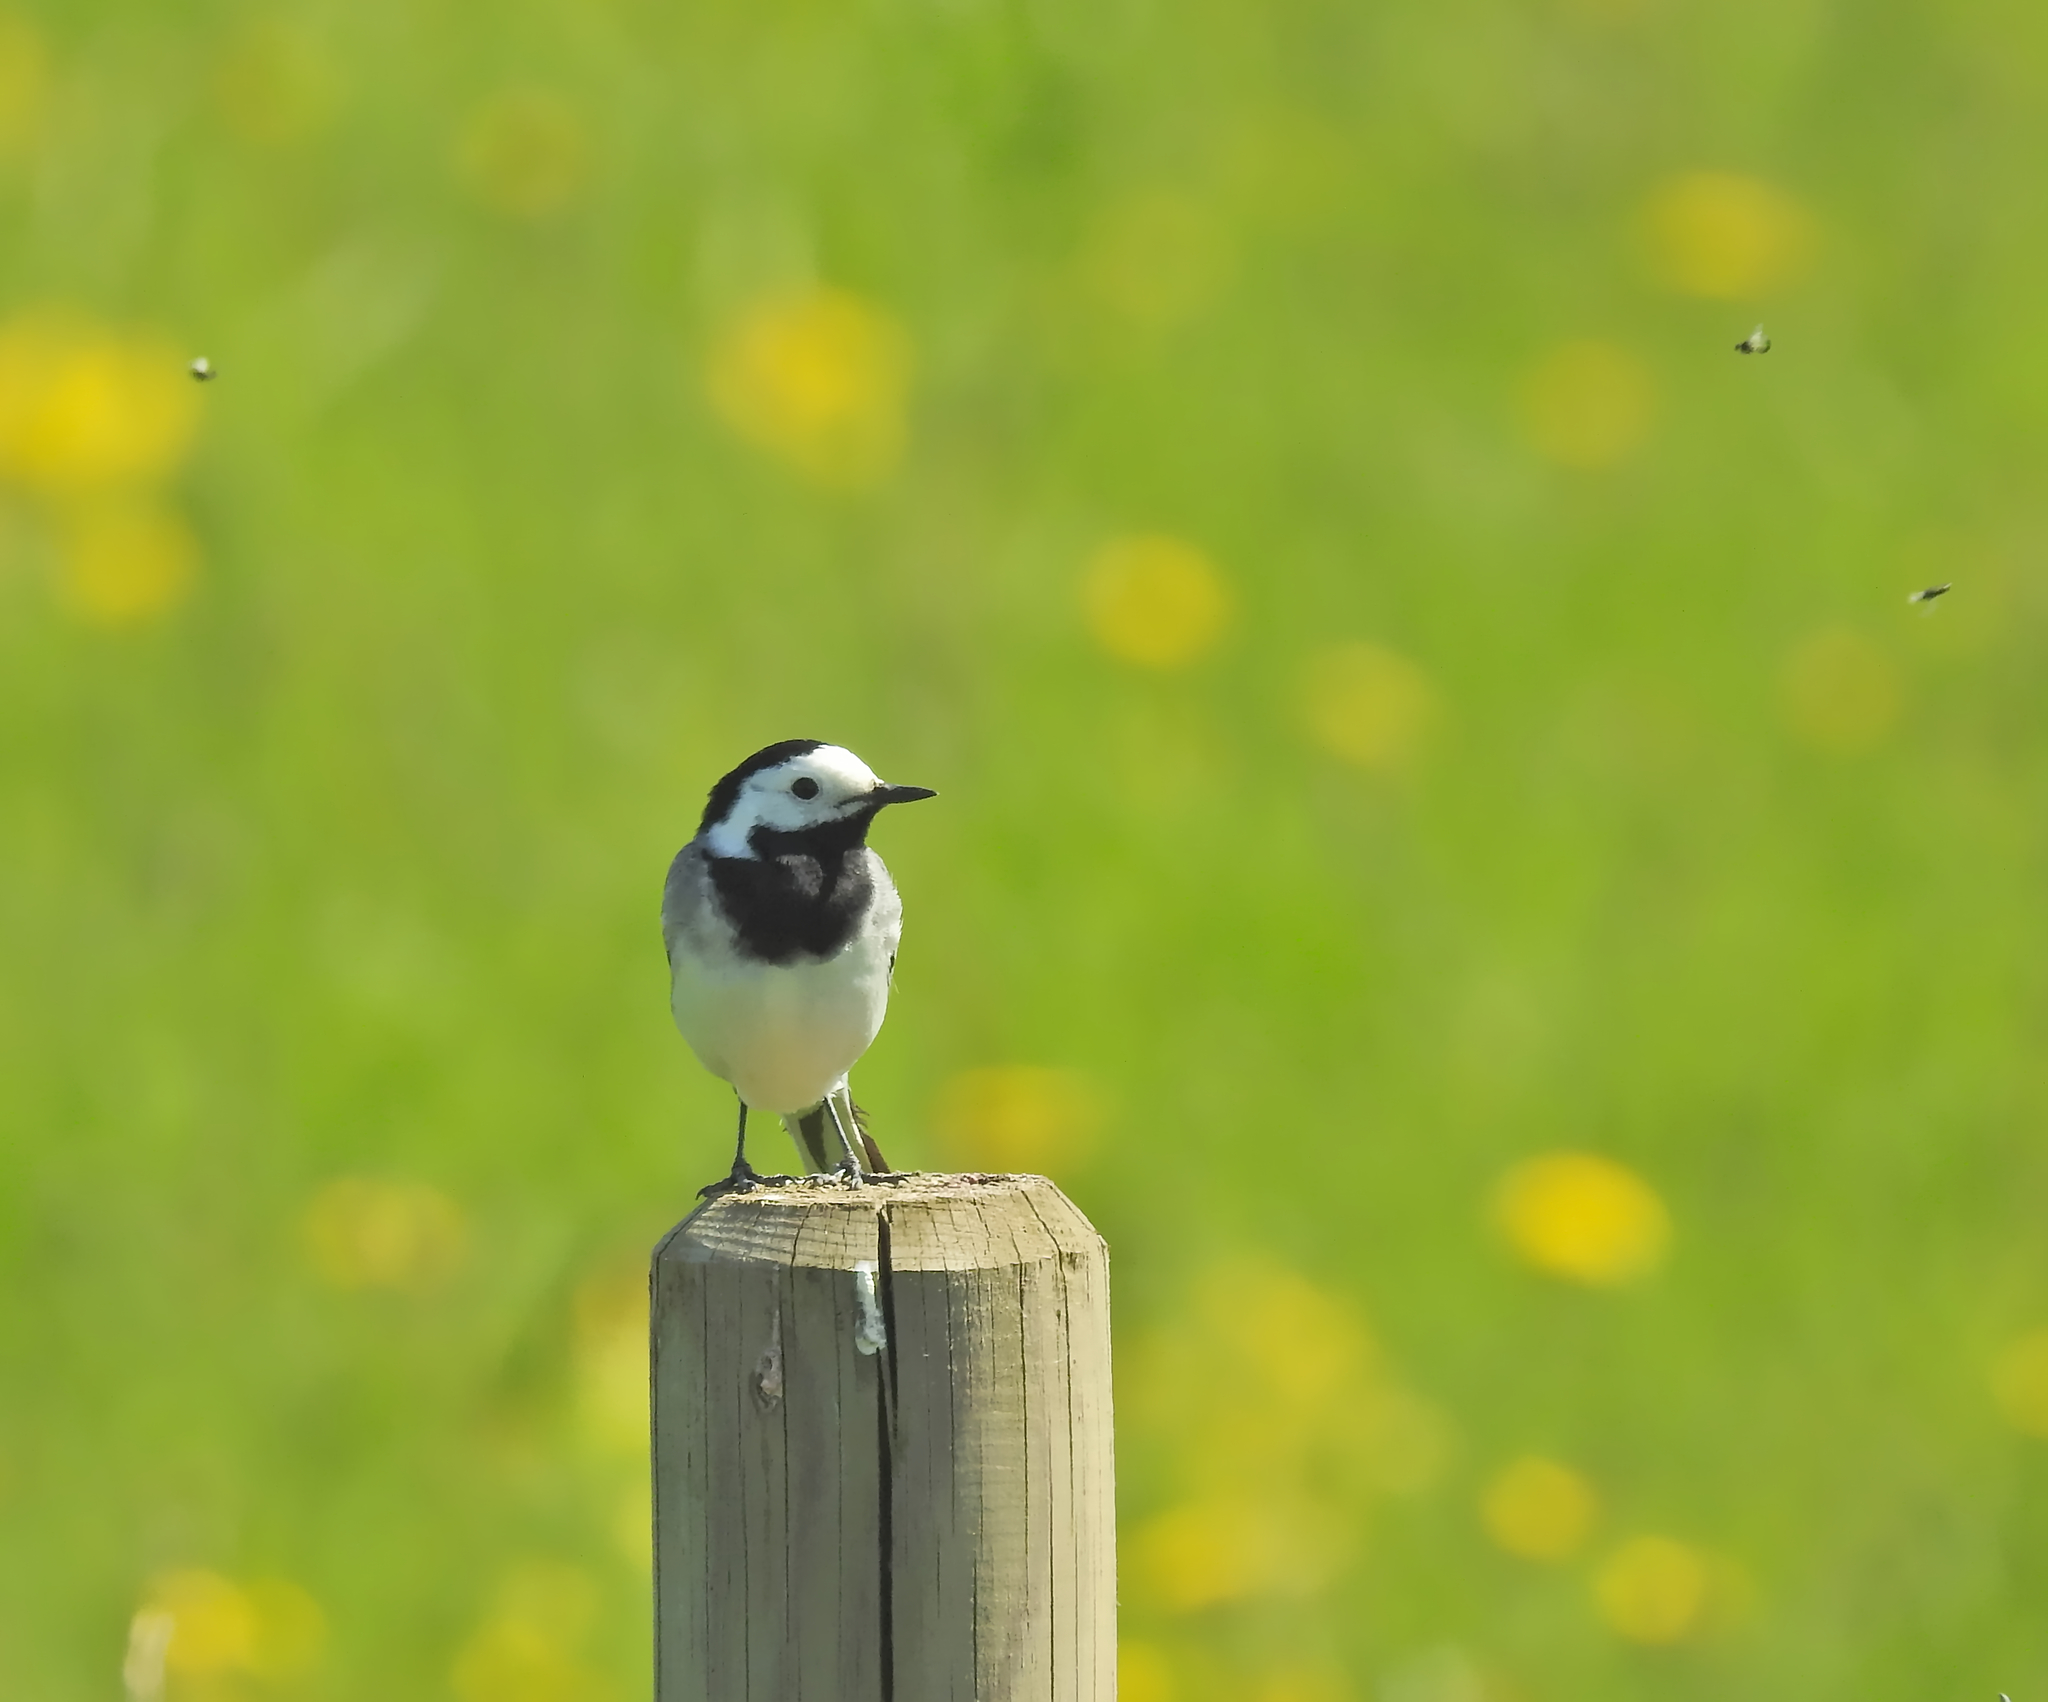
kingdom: Animalia
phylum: Chordata
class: Aves
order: Passeriformes
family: Motacillidae
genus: Motacilla
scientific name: Motacilla alba
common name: White wagtail
